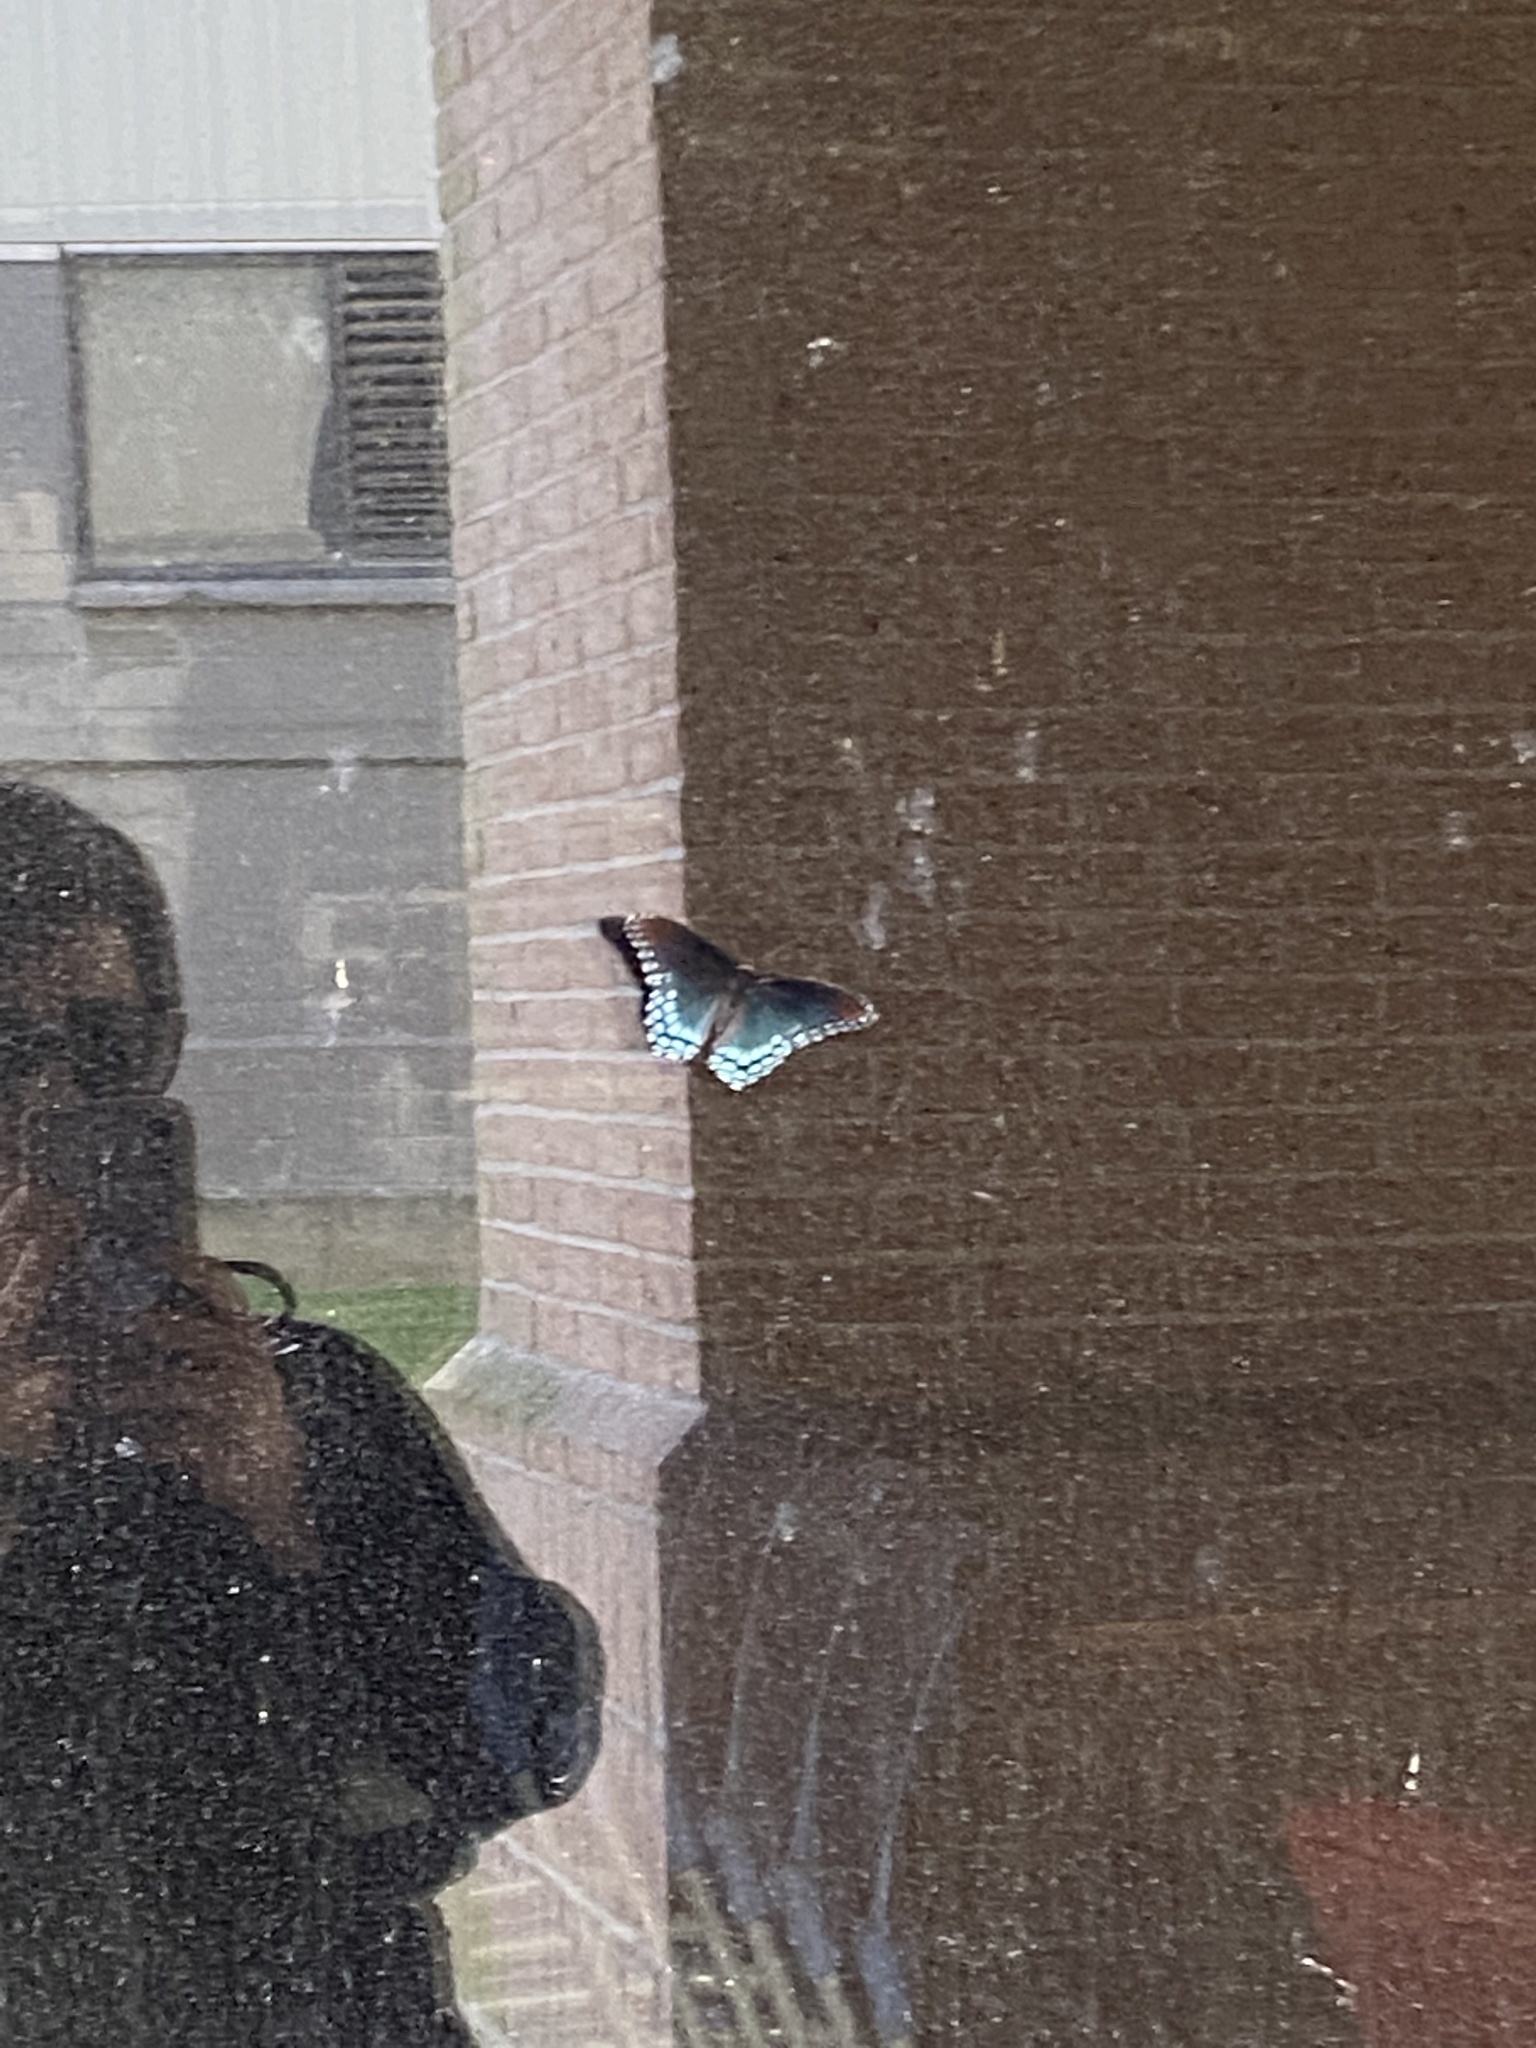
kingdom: Animalia
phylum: Arthropoda
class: Insecta
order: Lepidoptera
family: Nymphalidae
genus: Limenitis
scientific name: Limenitis astyanax
